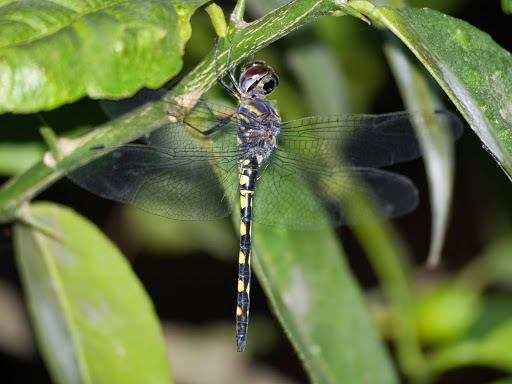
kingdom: Animalia
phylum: Arthropoda
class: Insecta
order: Odonata
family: Libellulidae
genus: Zygonyx
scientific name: Zygonyx torridus
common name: Ringed cascader
